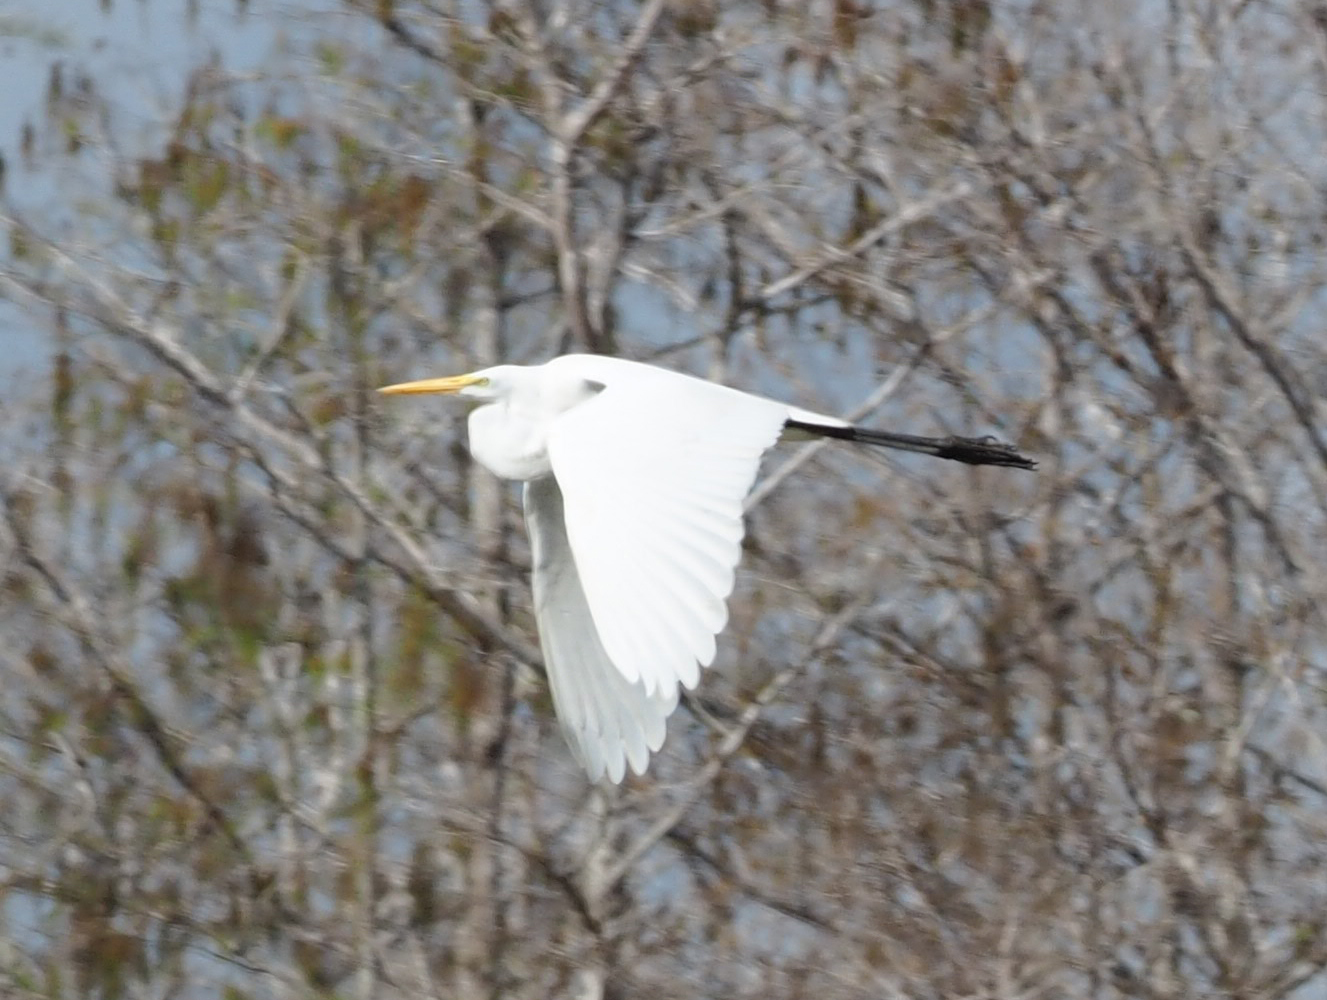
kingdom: Animalia
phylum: Chordata
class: Aves
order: Pelecaniformes
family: Ardeidae
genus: Ardea
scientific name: Ardea alba
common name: Great egret
